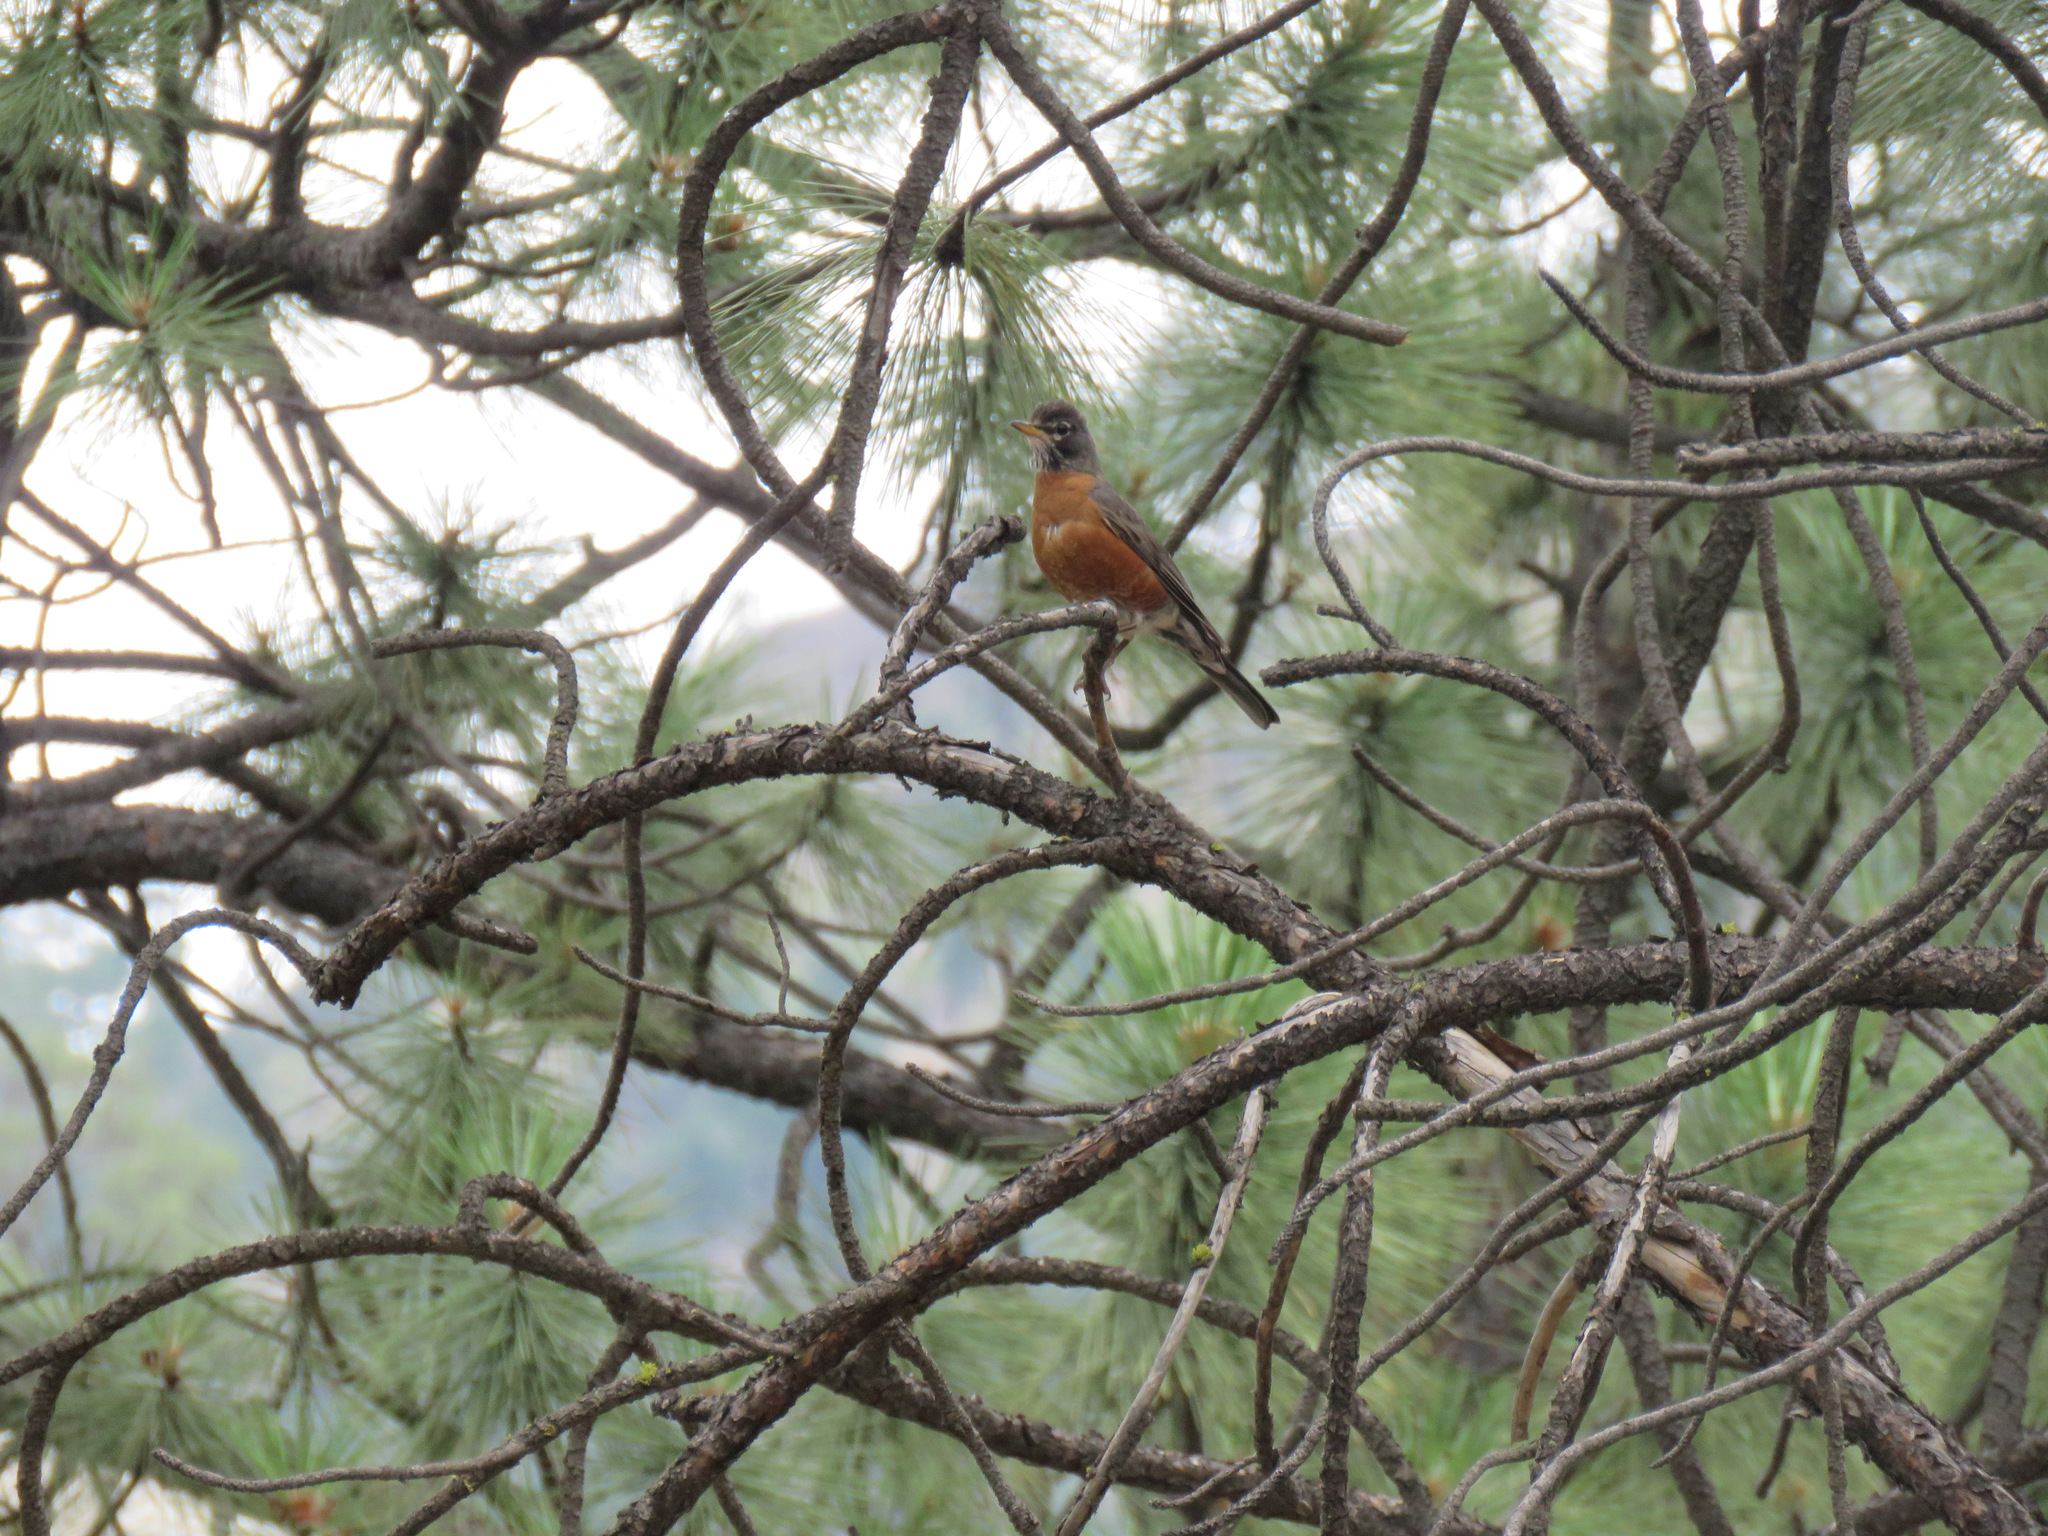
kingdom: Animalia
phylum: Chordata
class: Aves
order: Passeriformes
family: Turdidae
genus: Turdus
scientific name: Turdus migratorius
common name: American robin
